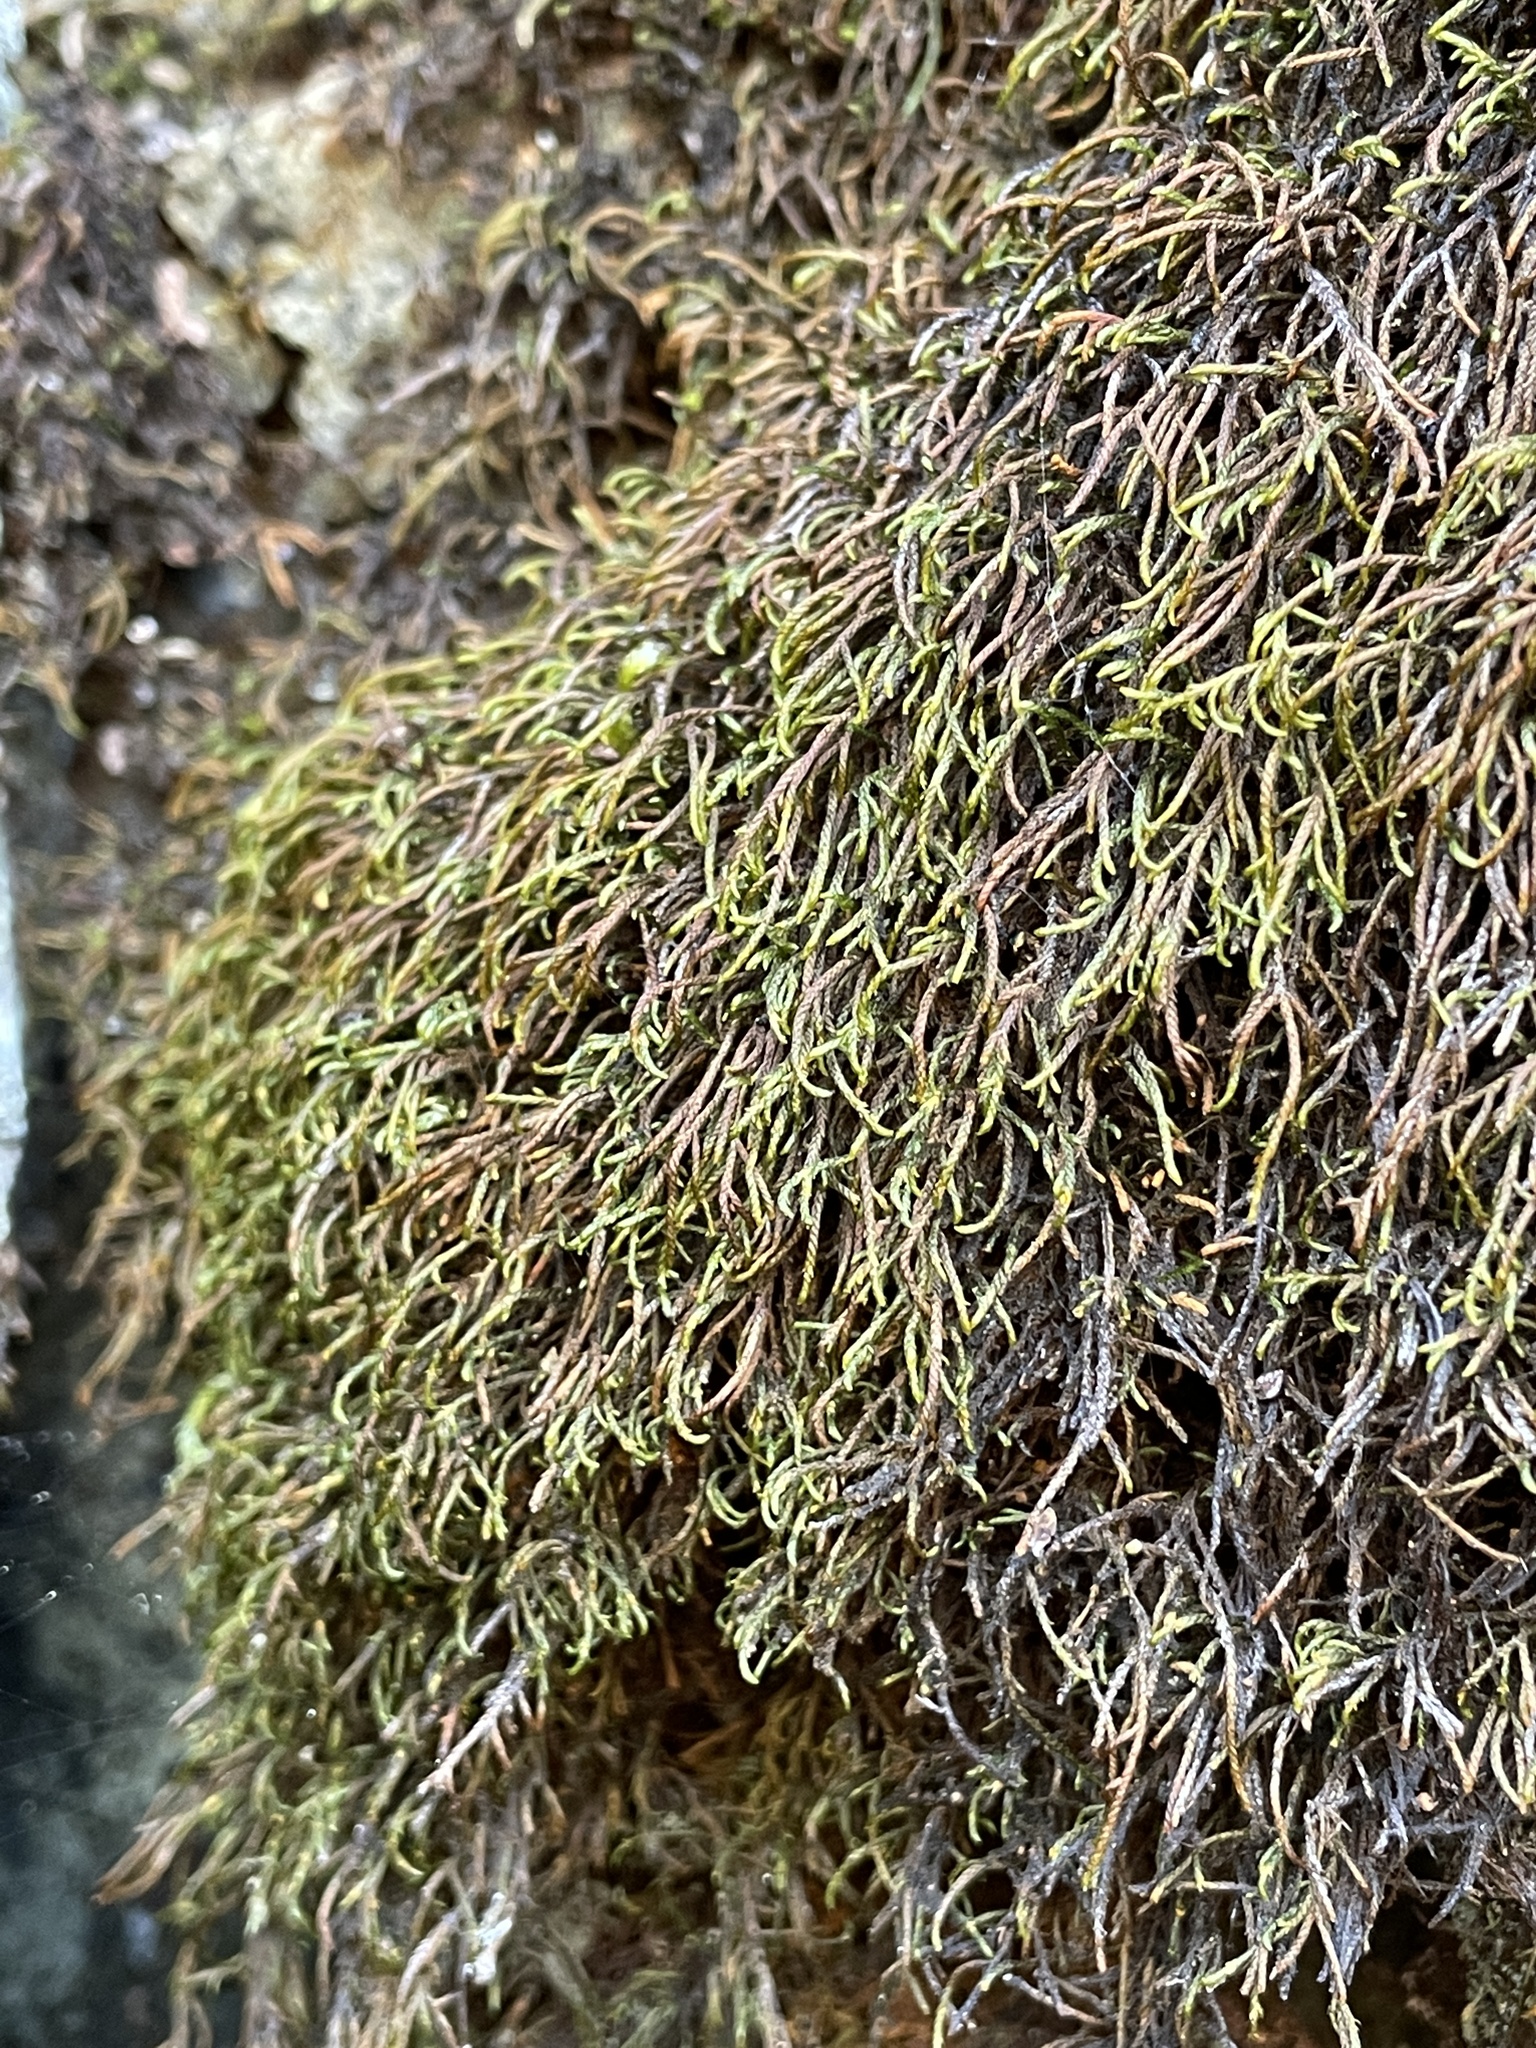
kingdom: Plantae
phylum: Bryophyta
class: Bryopsida
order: Hypnales
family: Pseudoleskeellaceae
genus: Pseudoleskeella
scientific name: Pseudoleskeella serpentinensis
